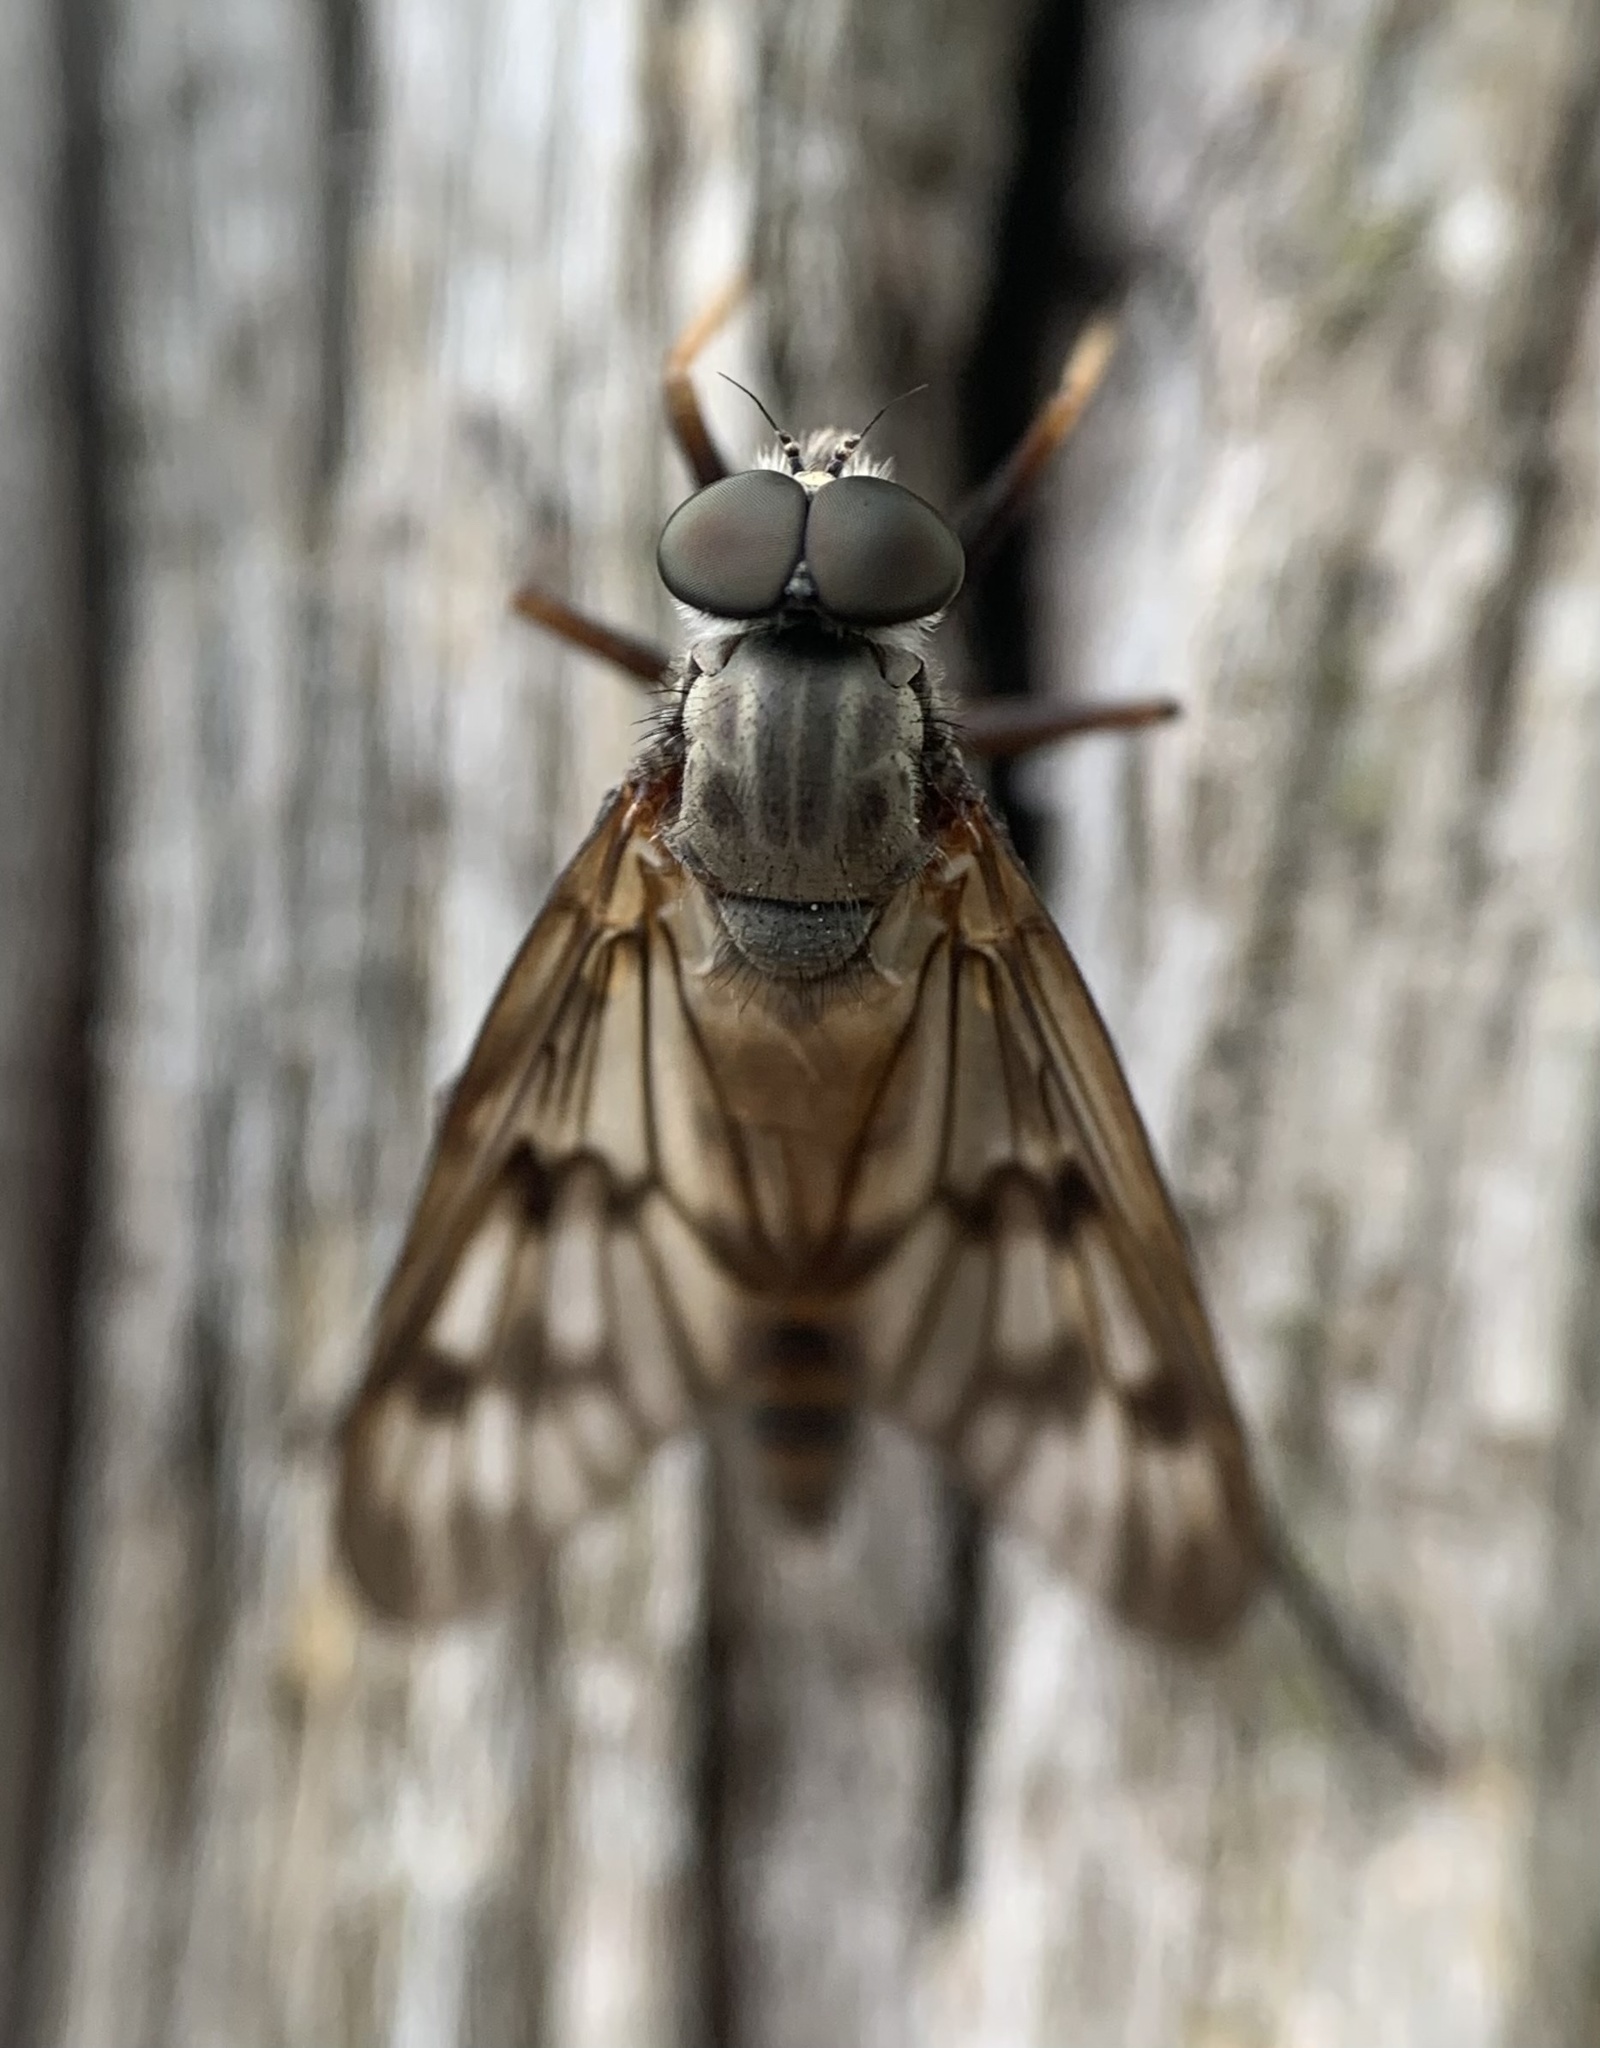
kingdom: Animalia
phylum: Arthropoda
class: Insecta
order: Diptera
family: Rhagionidae
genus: Rhagio
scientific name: Rhagio mystaceus
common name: Common snipe fly
